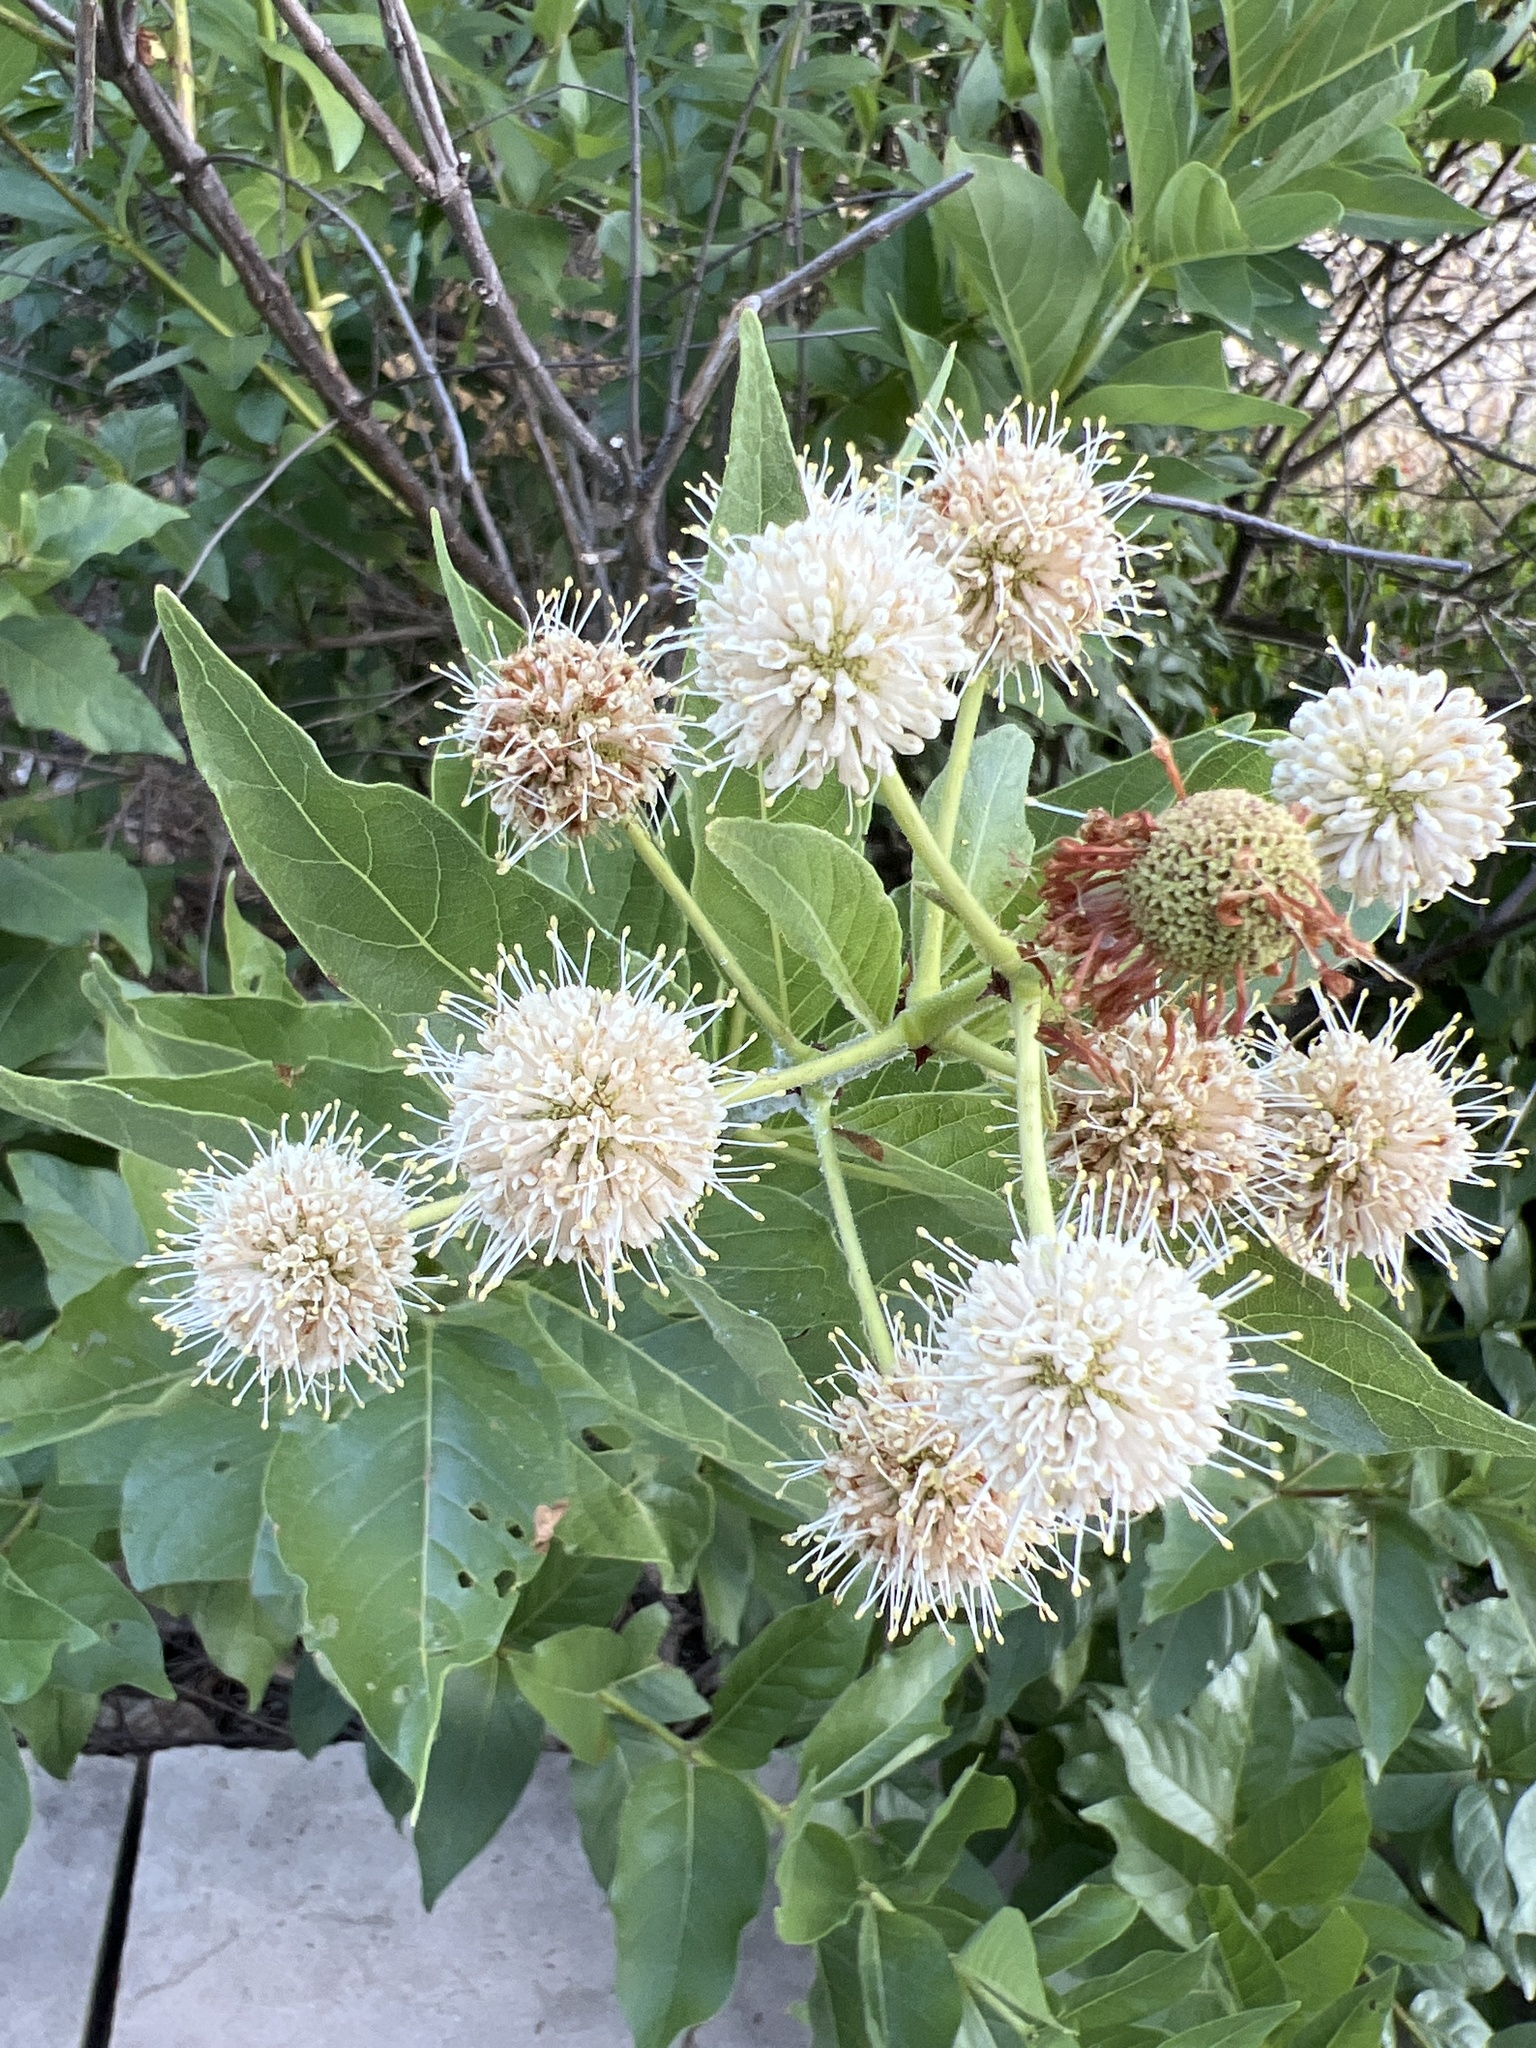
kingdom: Plantae
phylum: Tracheophyta
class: Magnoliopsida
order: Gentianales
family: Rubiaceae
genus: Cephalanthus
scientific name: Cephalanthus occidentalis
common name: Button-willow
